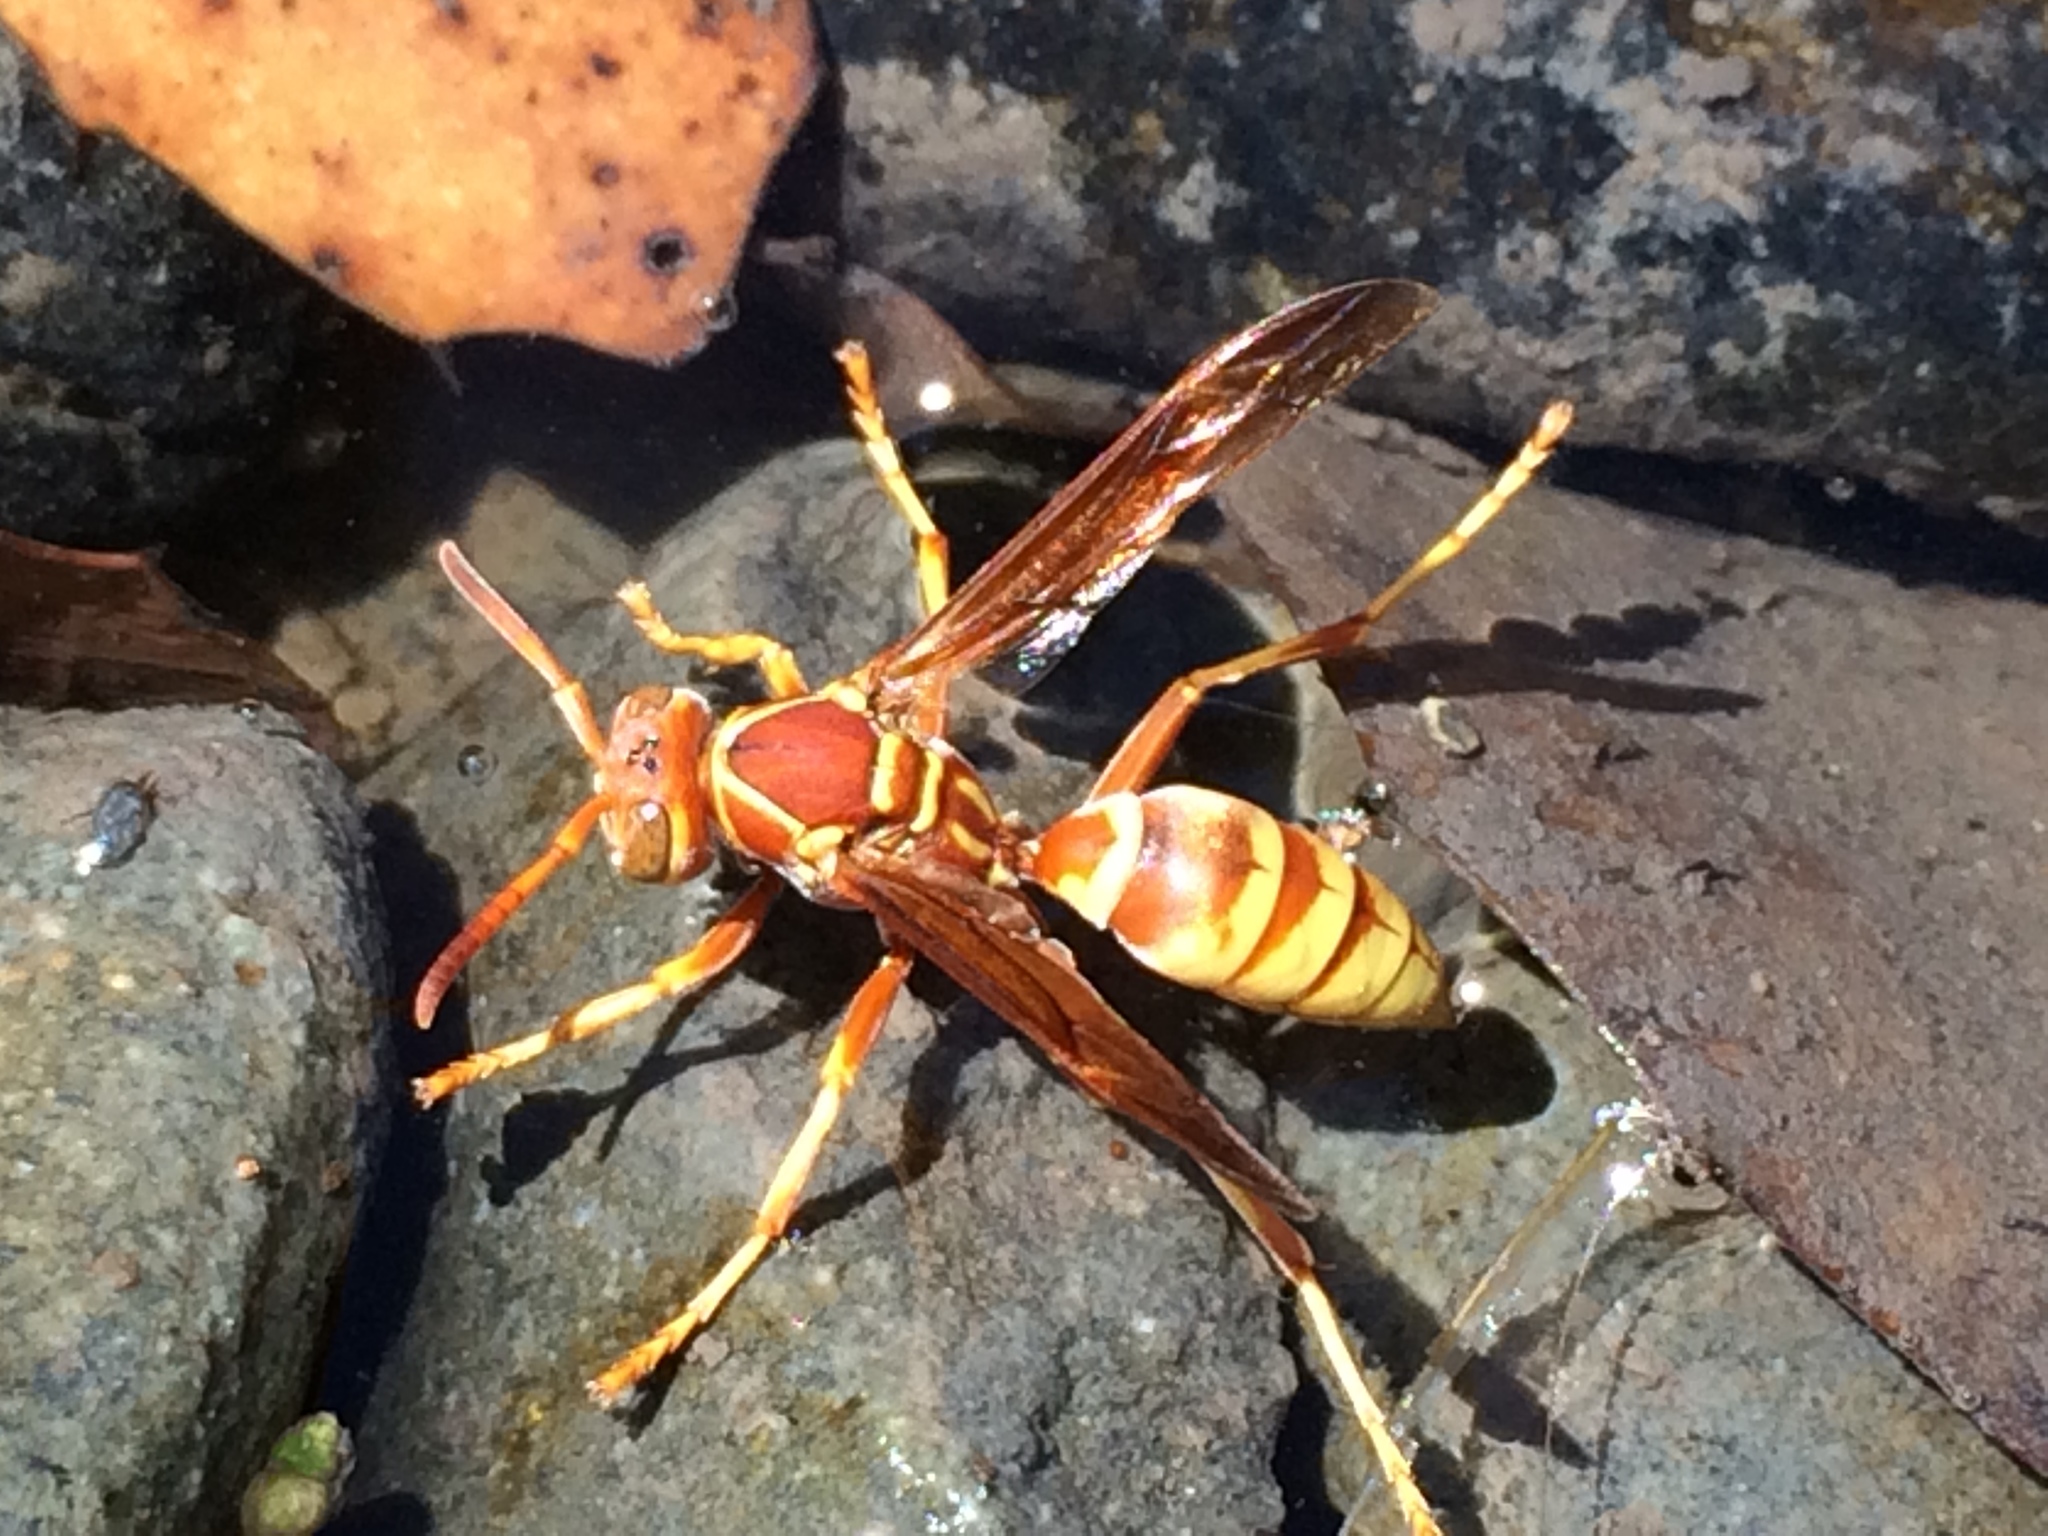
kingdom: Animalia
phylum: Arthropoda
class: Insecta
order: Hymenoptera
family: Eumenidae
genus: Polistes
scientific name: Polistes dorsalis
